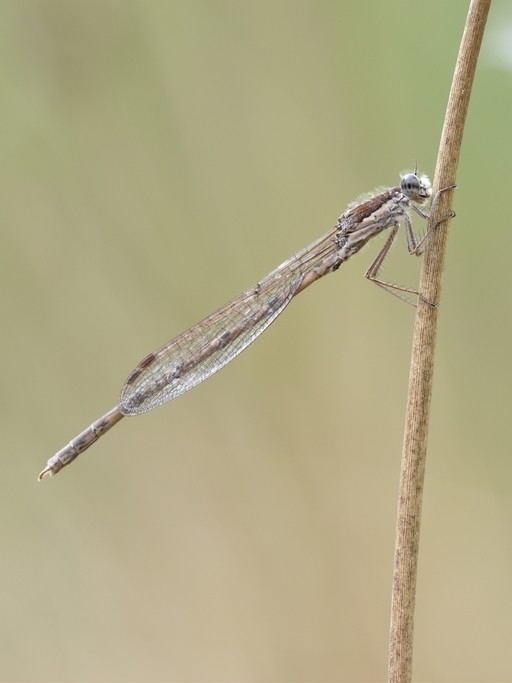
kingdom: Animalia
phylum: Arthropoda
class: Insecta
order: Odonata
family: Lestidae
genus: Sympecma
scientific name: Sympecma fusca
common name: Common winter damsel
